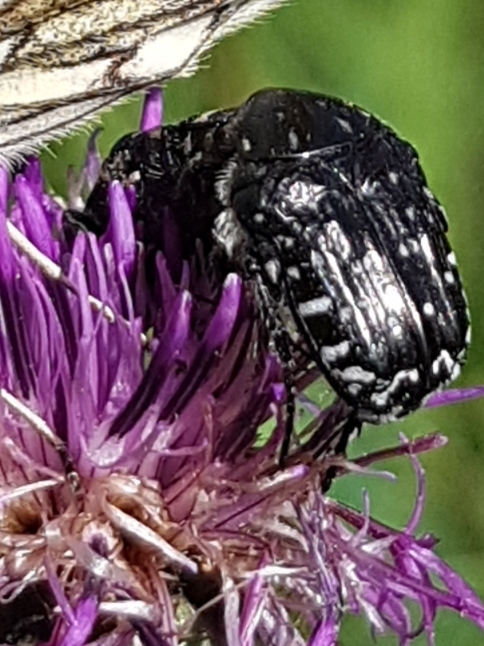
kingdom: Animalia
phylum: Arthropoda
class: Insecta
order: Coleoptera
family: Scarabaeidae
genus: Oxythyrea
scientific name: Oxythyrea funesta
